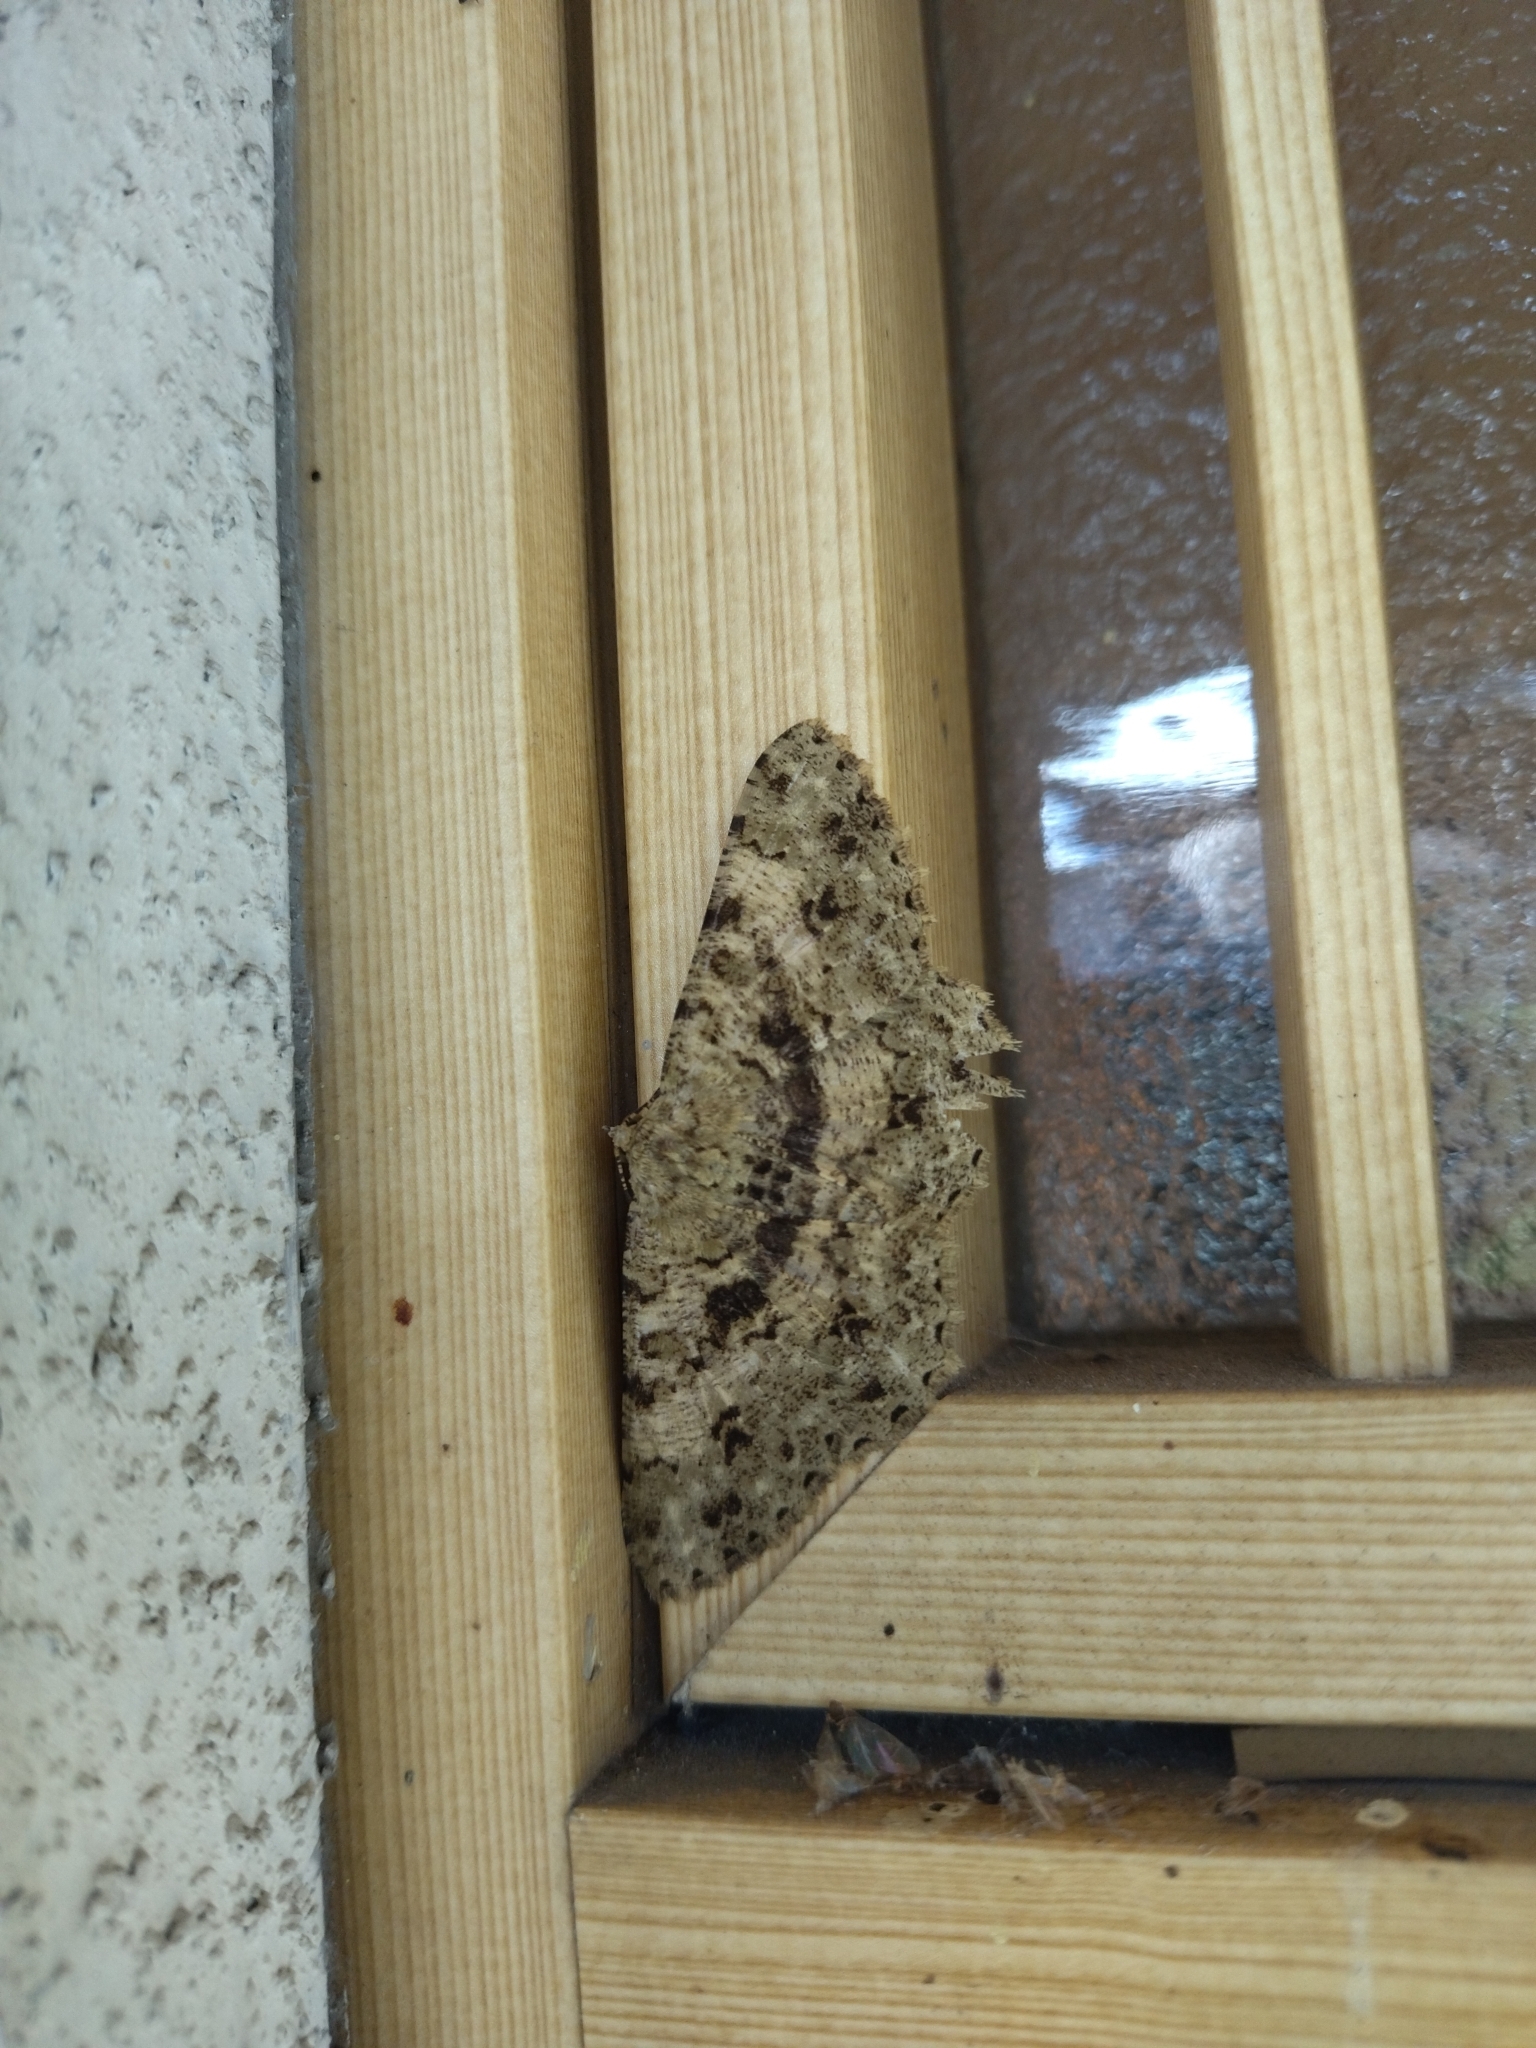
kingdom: Animalia
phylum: Arthropoda
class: Insecta
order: Lepidoptera
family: Geometridae
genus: Racotis
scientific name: Racotis boarmiaria
